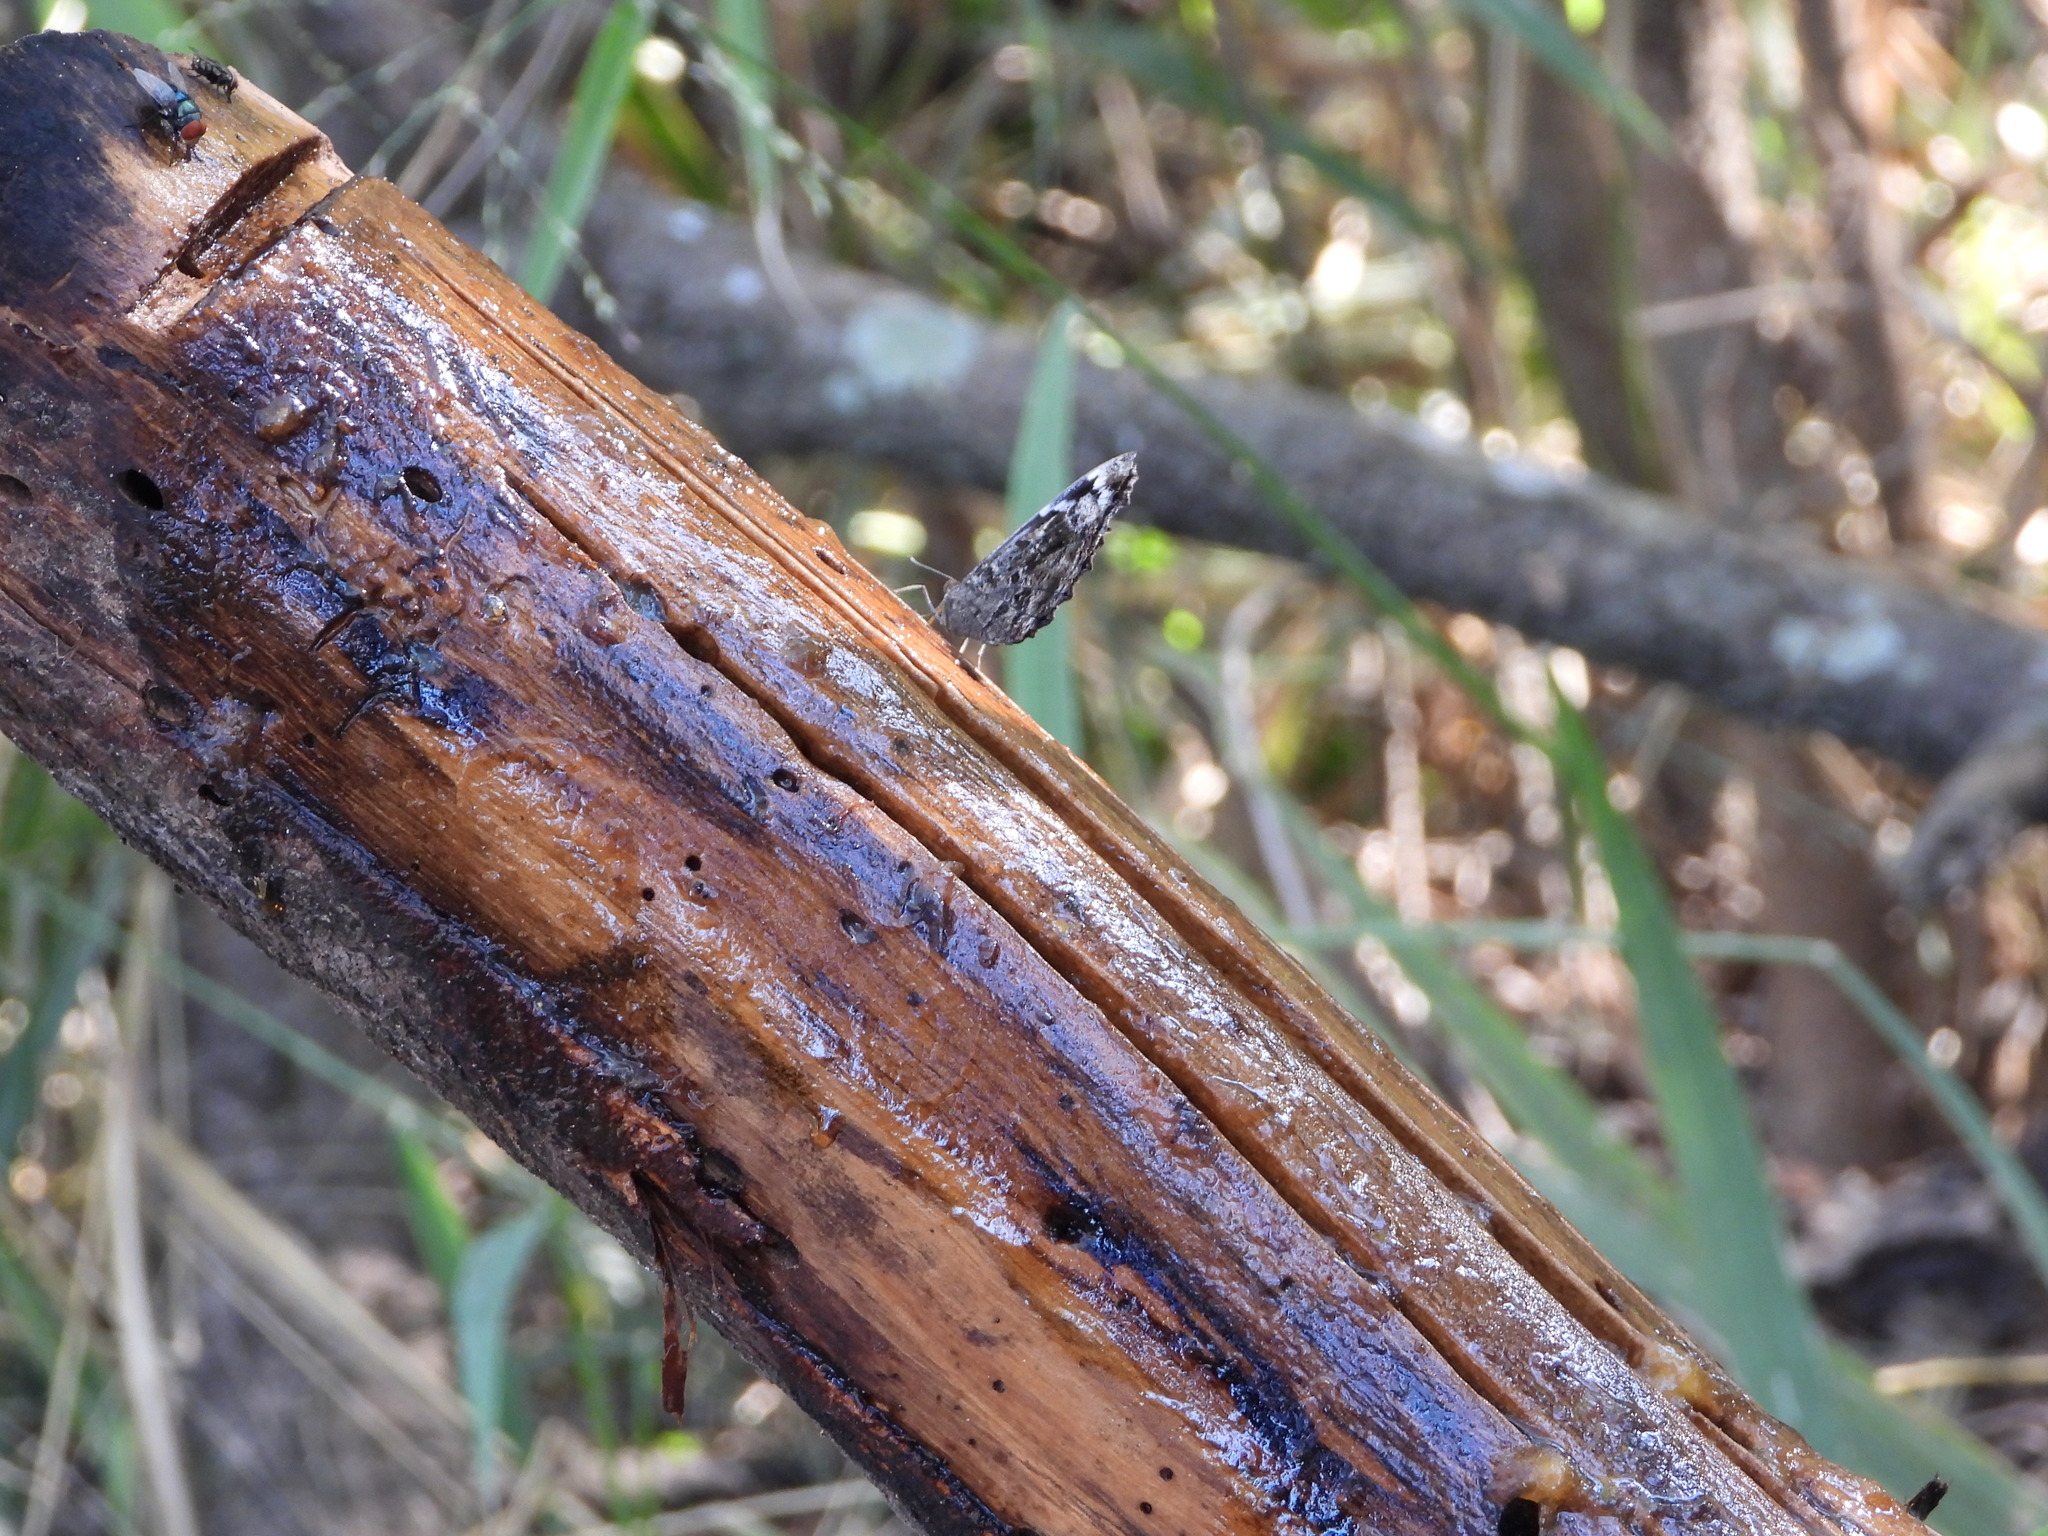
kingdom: Animalia
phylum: Arthropoda
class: Insecta
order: Lepidoptera
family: Nymphalidae
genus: Myscelia
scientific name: Myscelia ethusa
